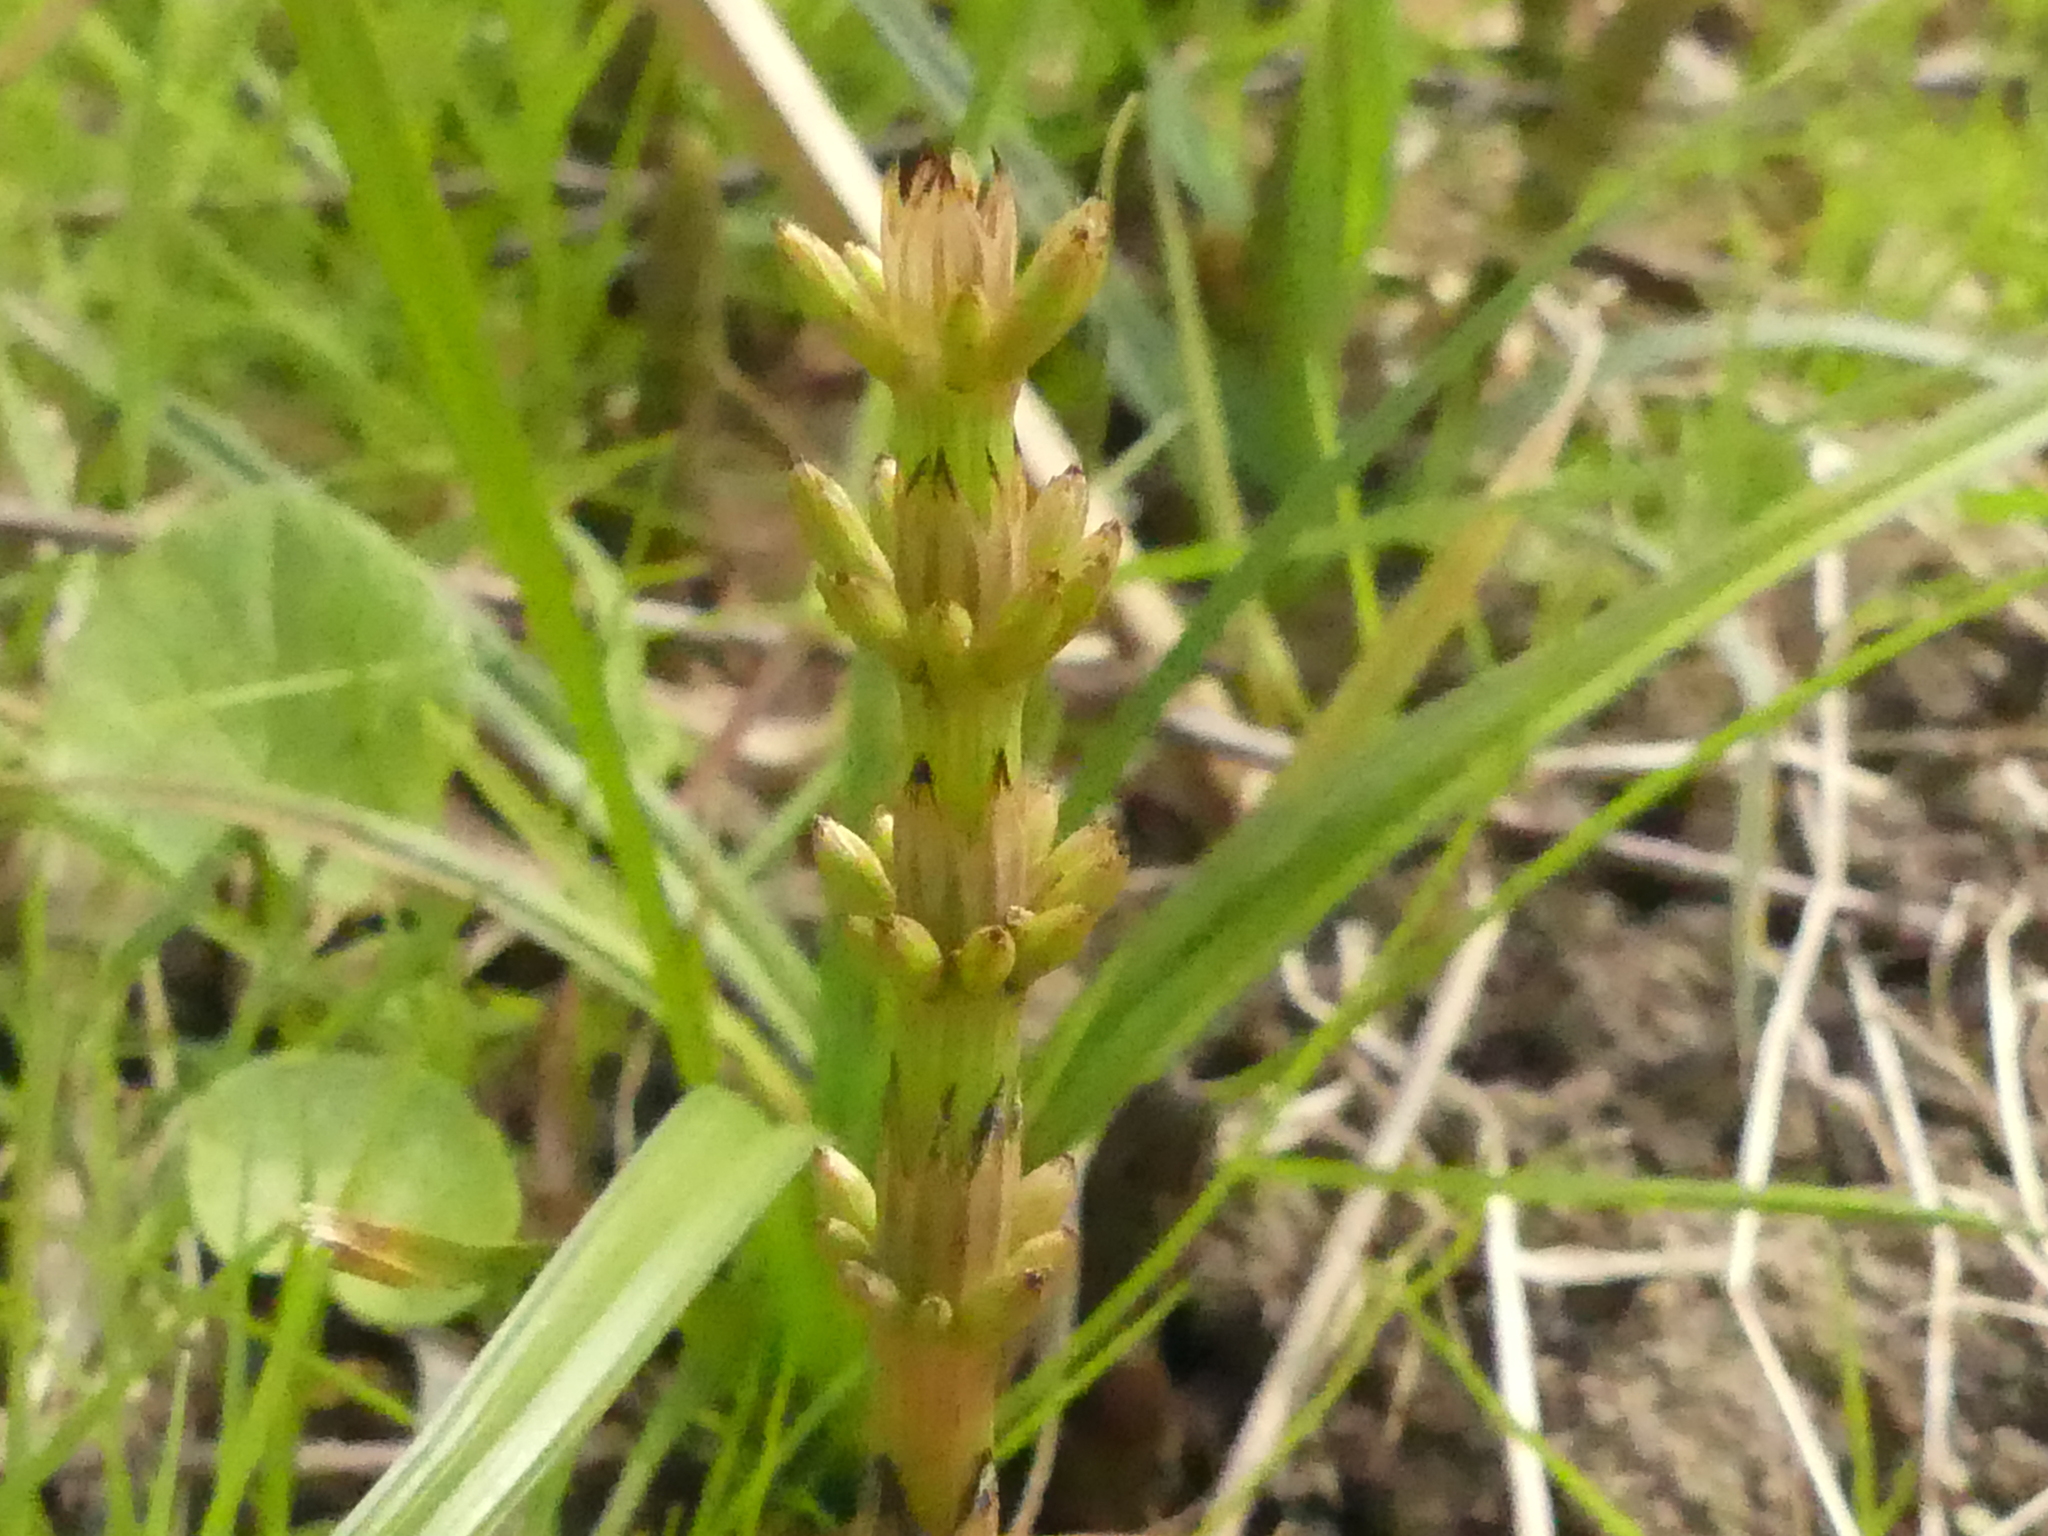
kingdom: Plantae
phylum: Tracheophyta
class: Polypodiopsida
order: Equisetales
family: Equisetaceae
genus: Equisetum
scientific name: Equisetum arvense
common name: Field horsetail
